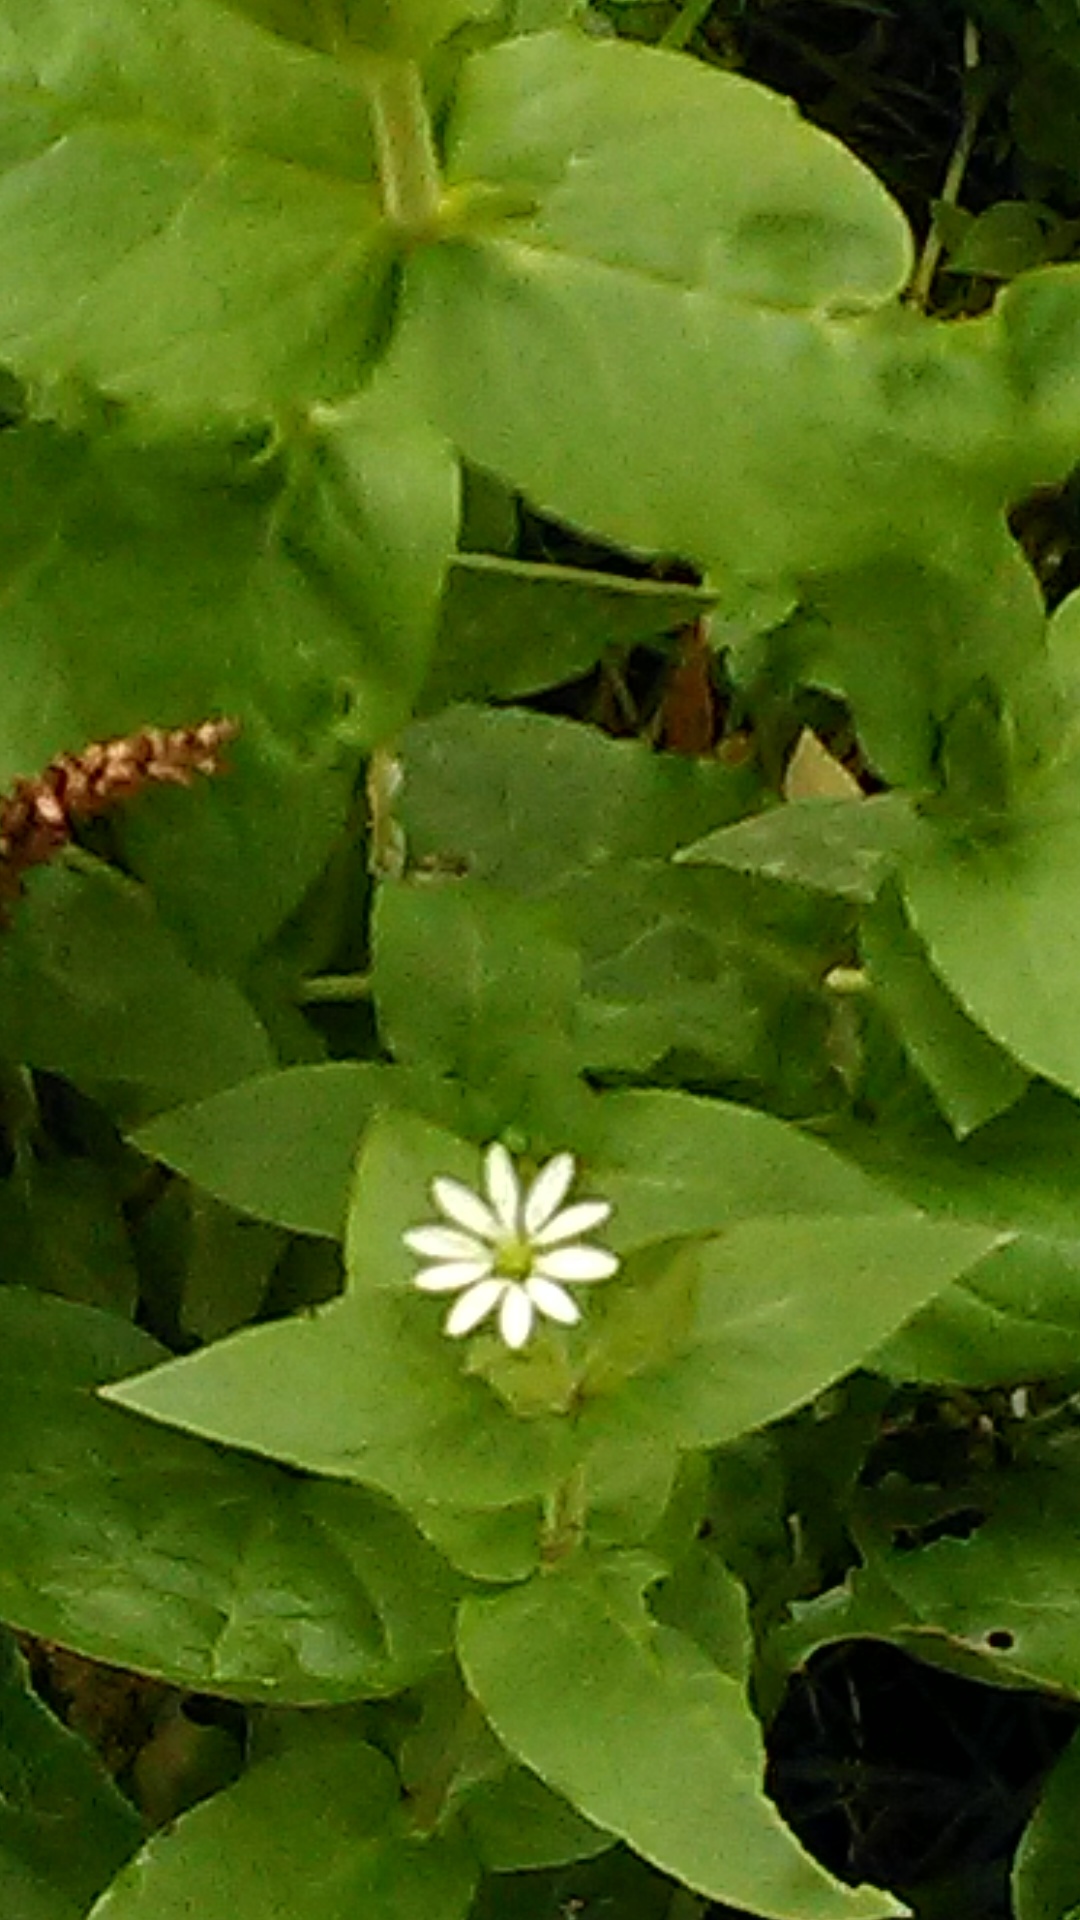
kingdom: Plantae
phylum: Tracheophyta
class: Magnoliopsida
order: Caryophyllales
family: Caryophyllaceae
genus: Stellaria
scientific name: Stellaria aquatica
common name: Water chickweed
